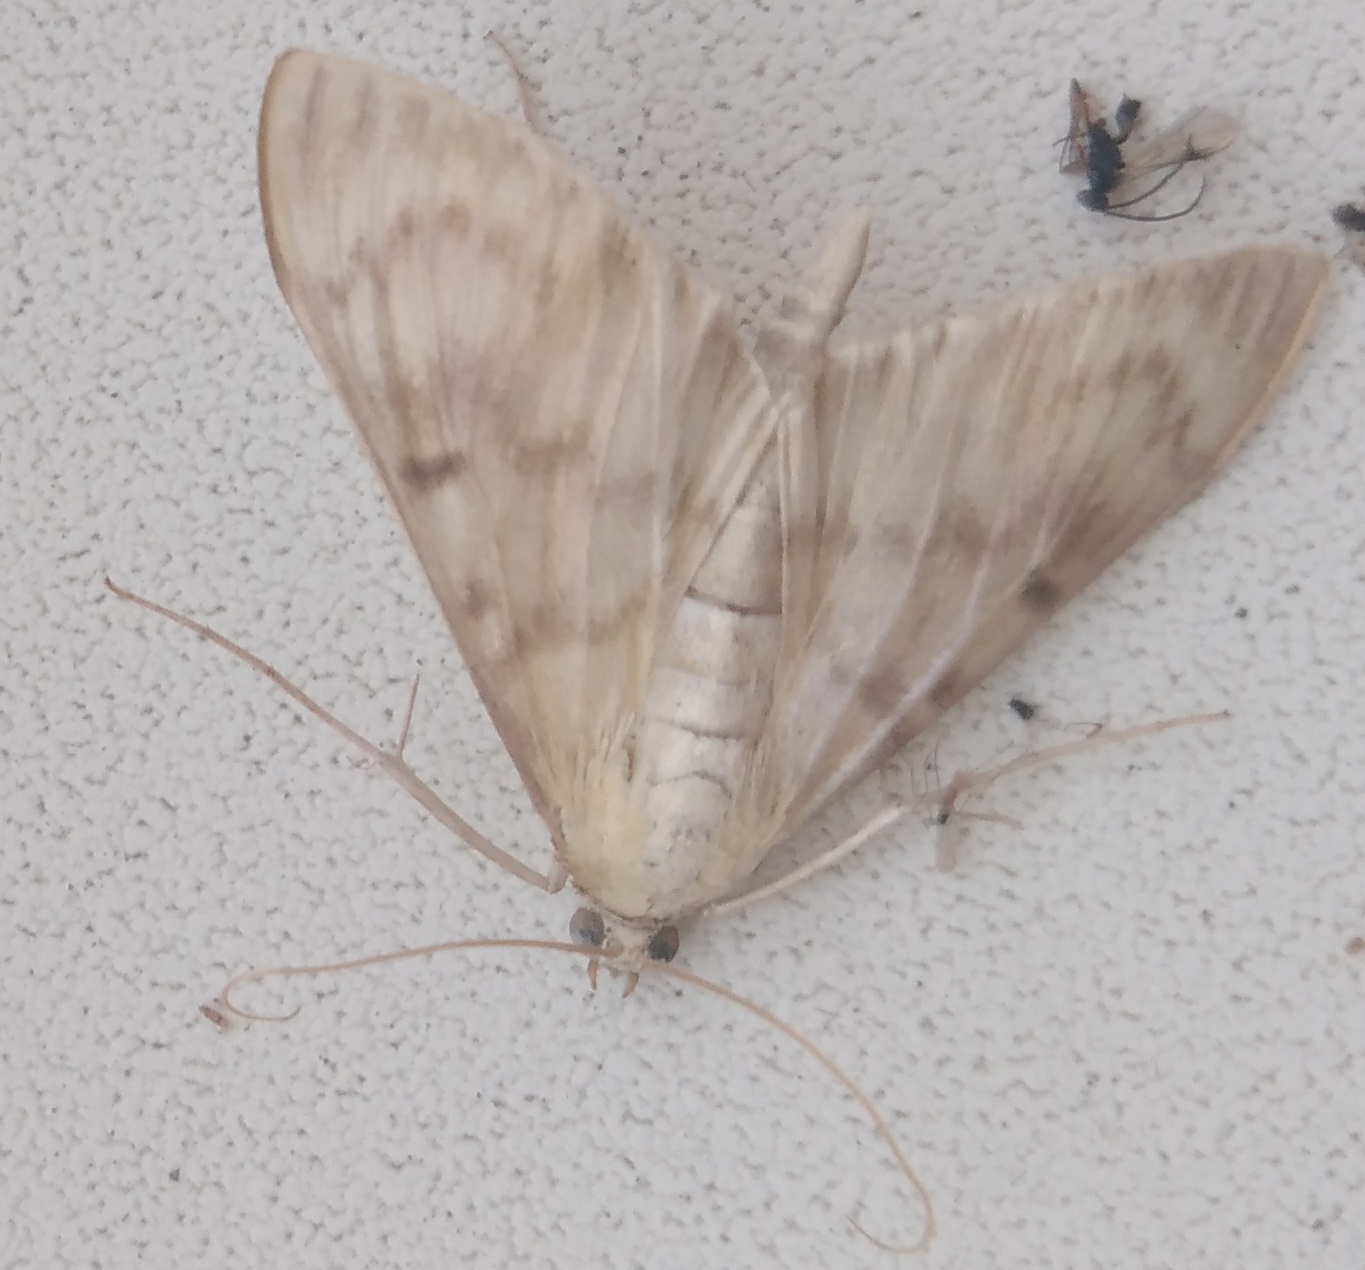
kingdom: Animalia
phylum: Arthropoda
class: Insecta
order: Lepidoptera
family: Crambidae
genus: Patania
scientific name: Patania ruralis
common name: Mother of pearl
